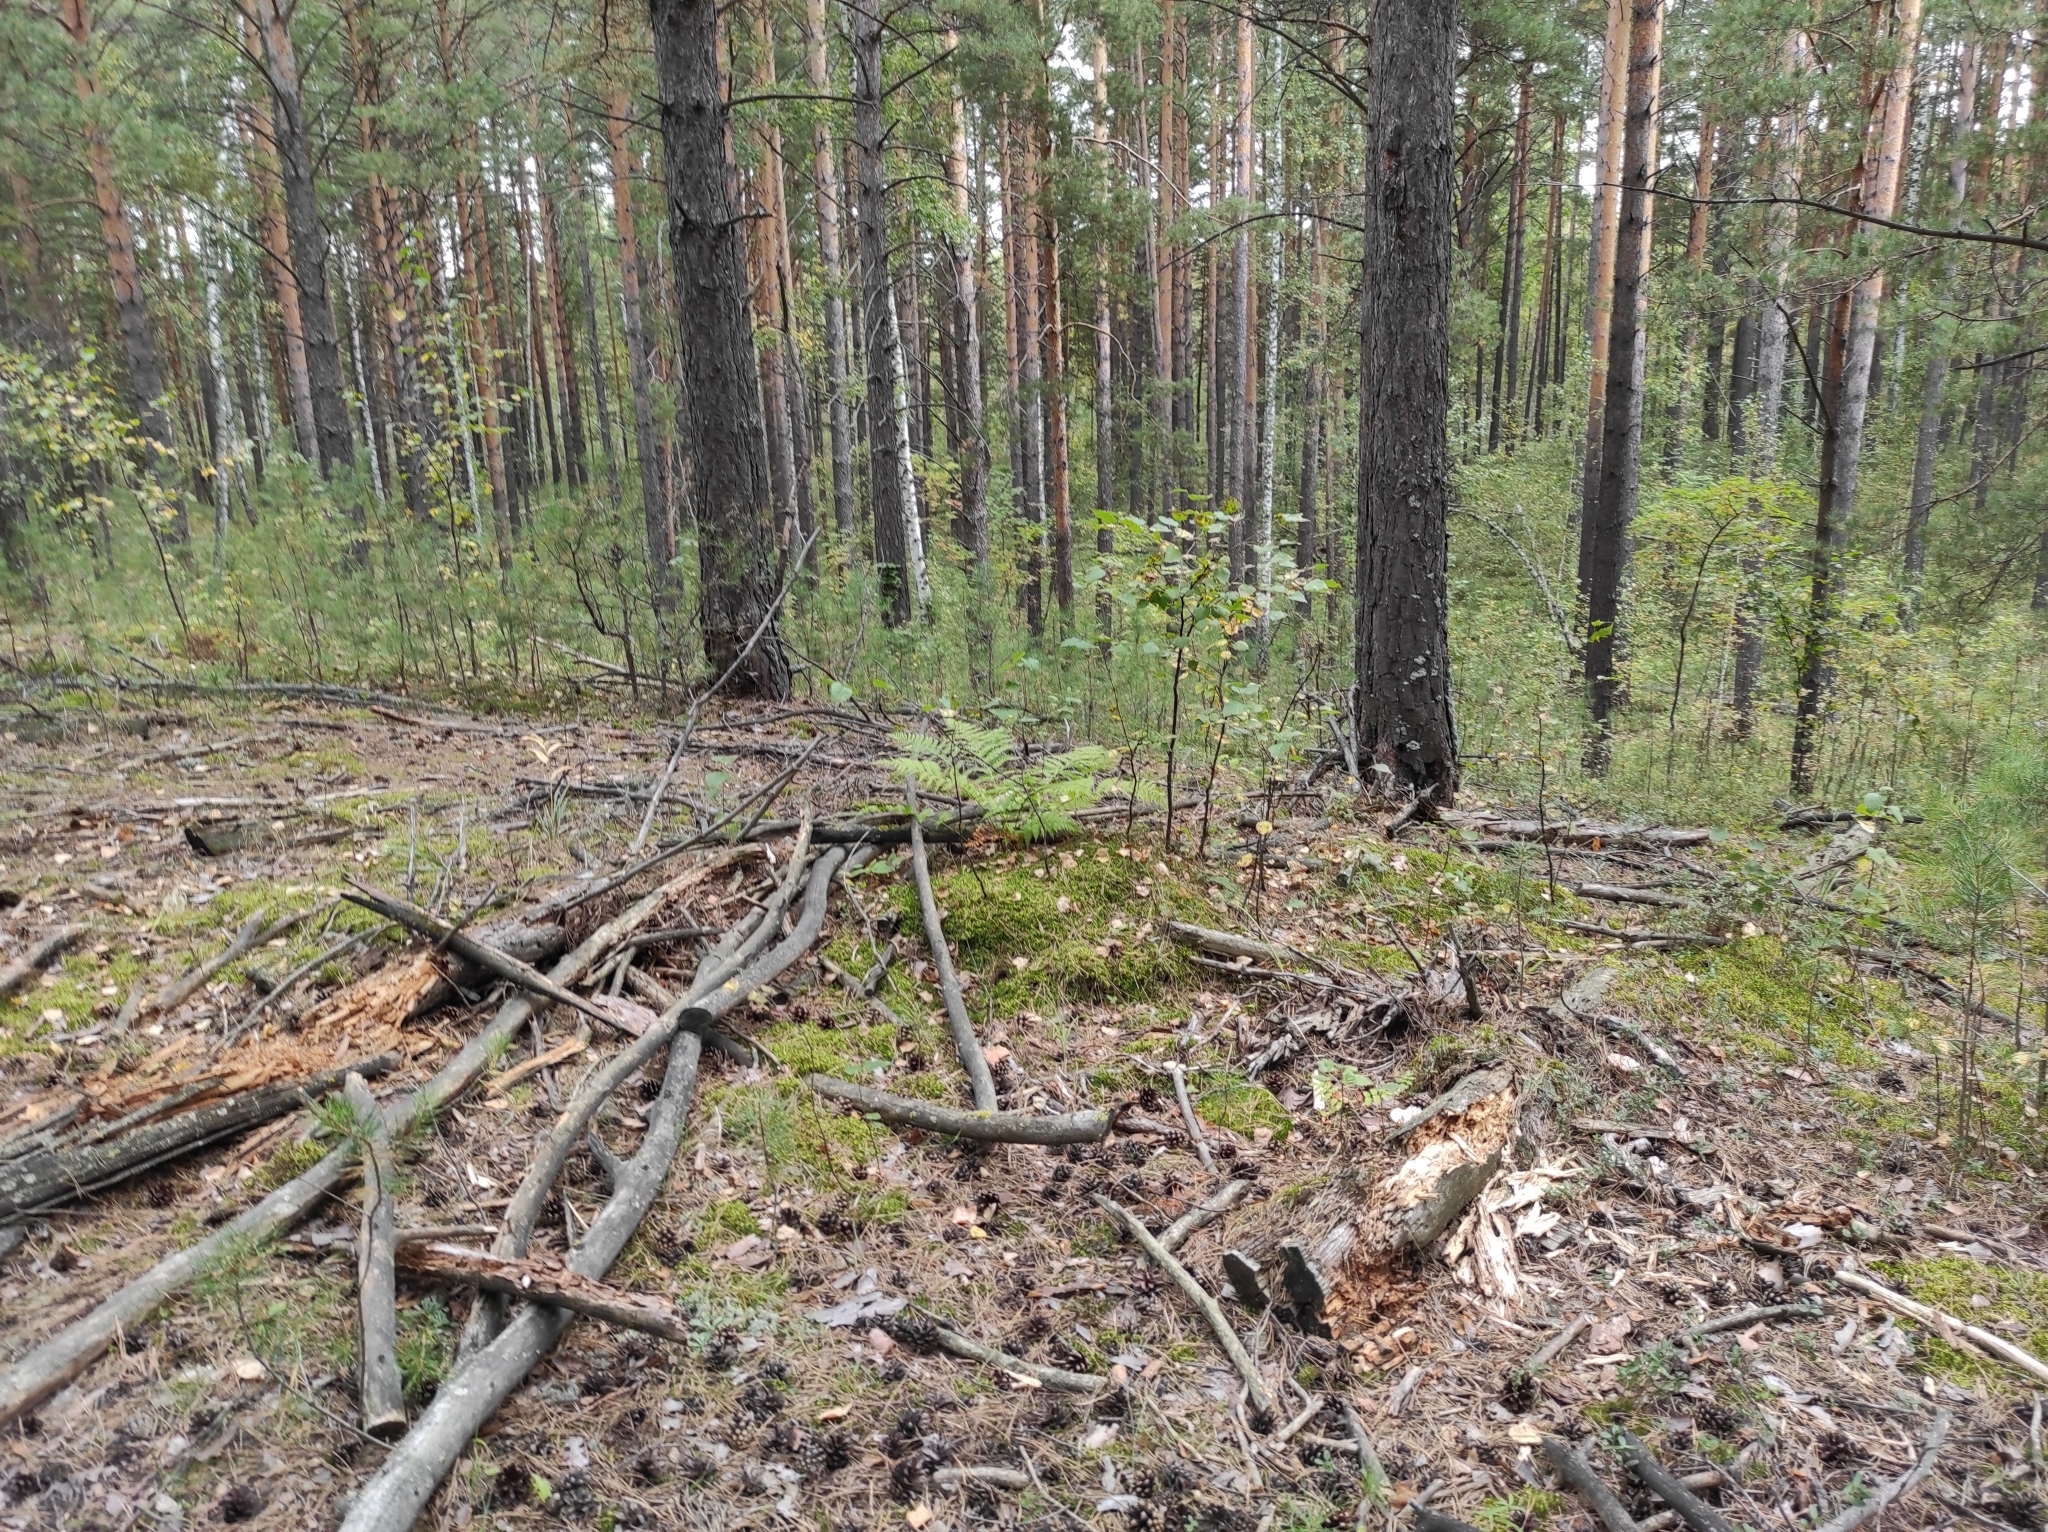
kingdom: Plantae
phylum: Tracheophyta
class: Pinopsida
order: Pinales
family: Pinaceae
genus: Pinus
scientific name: Pinus sylvestris
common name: Scots pine
